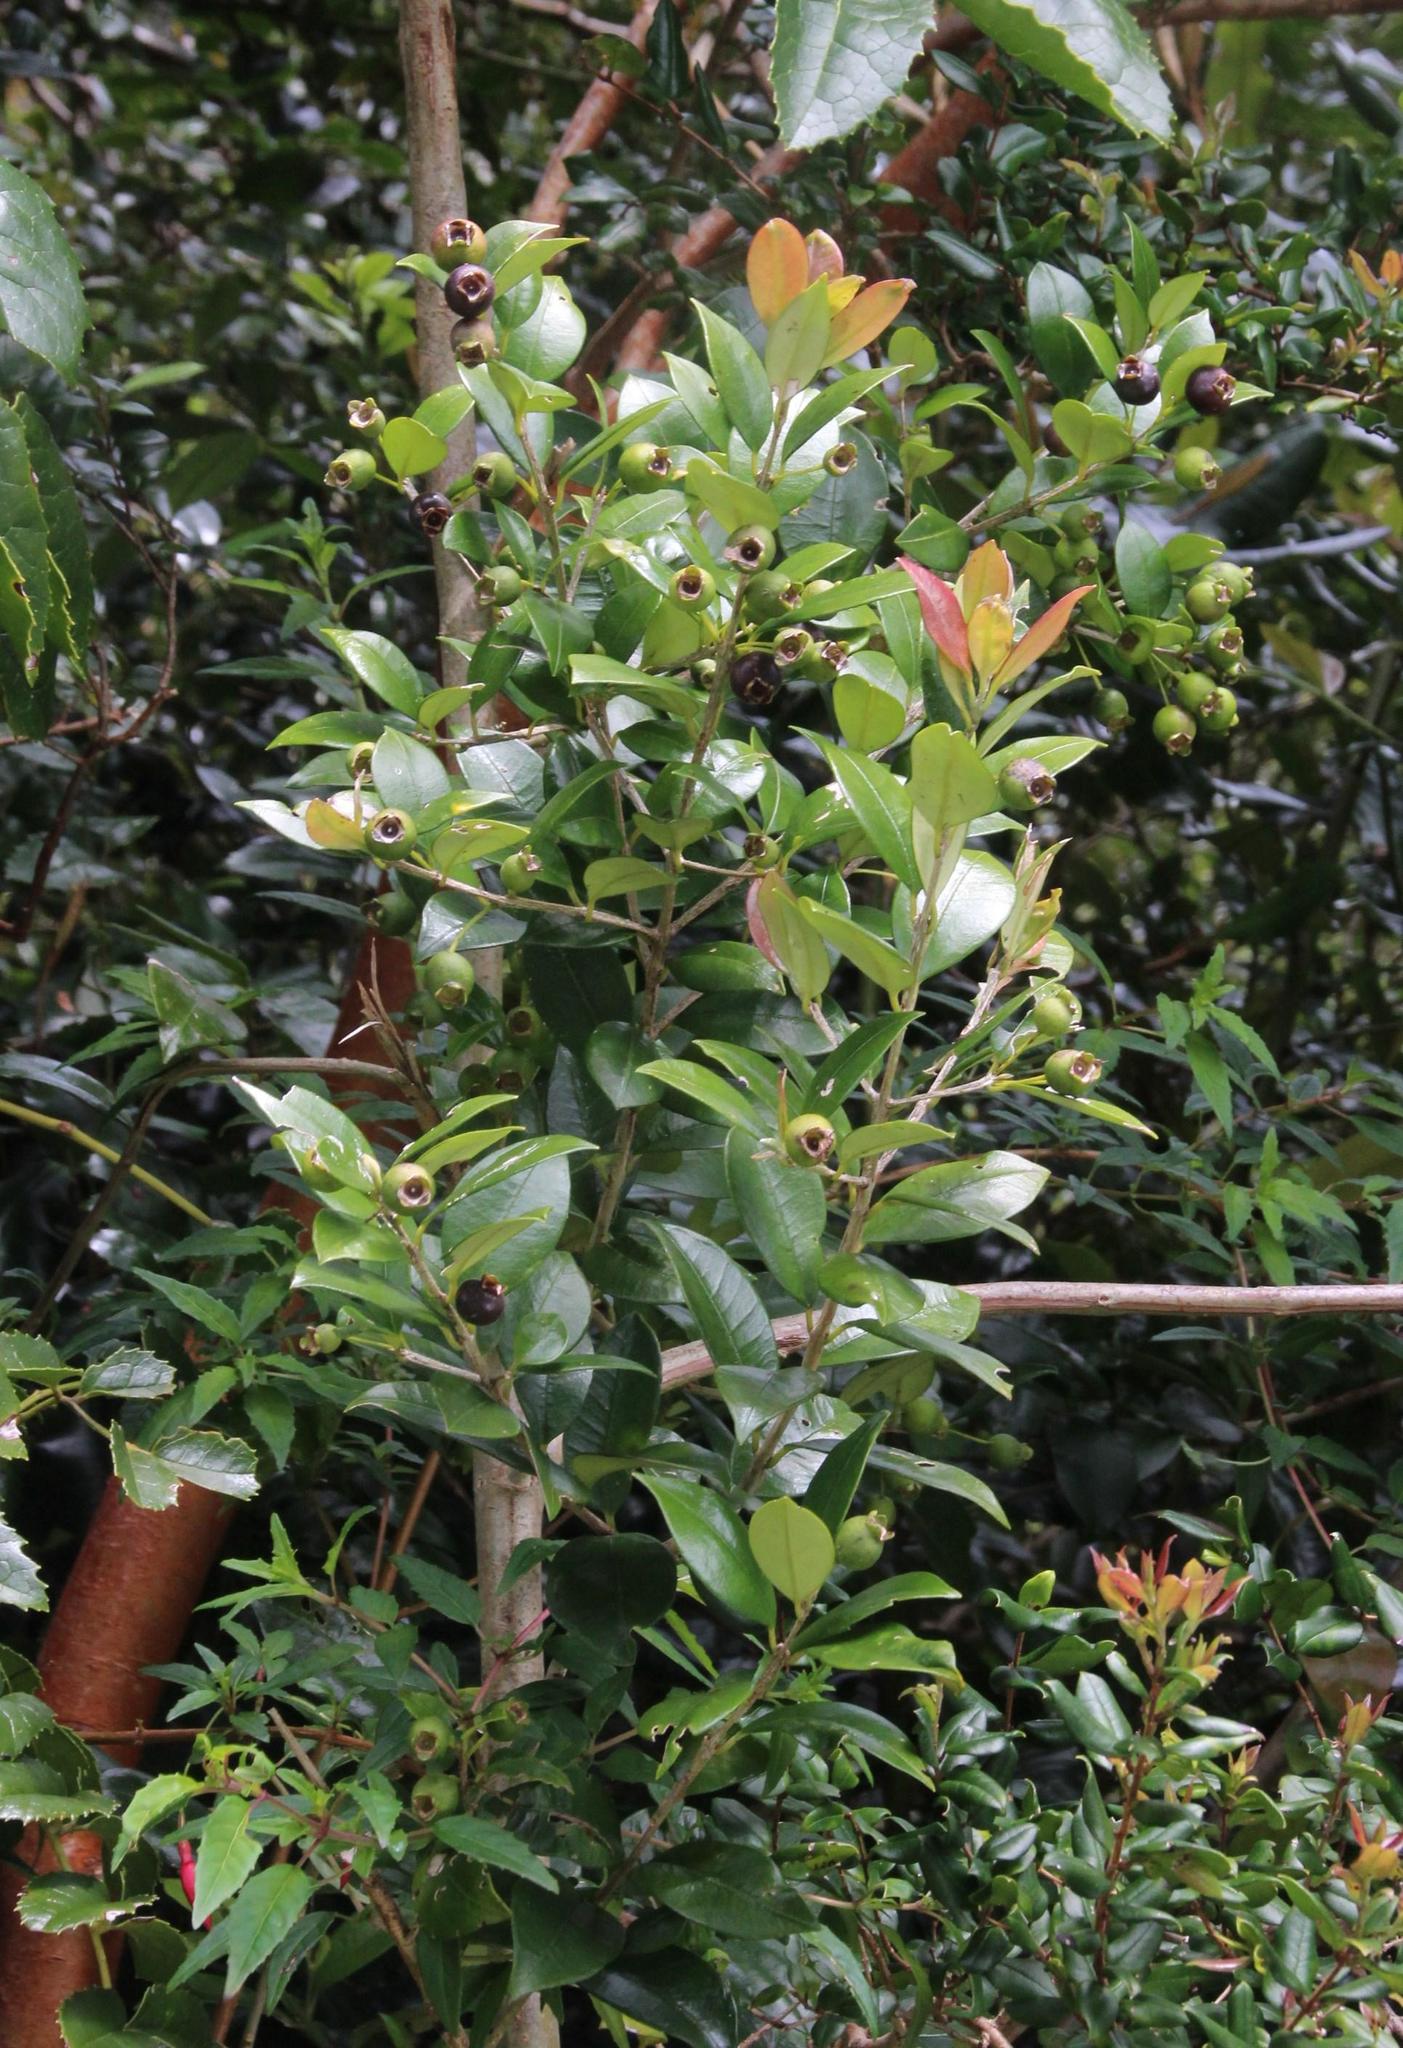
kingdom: Plantae
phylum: Tracheophyta
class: Magnoliopsida
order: Myrtales
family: Myrtaceae
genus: Myrceugenia
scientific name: Myrceugenia exsucca
